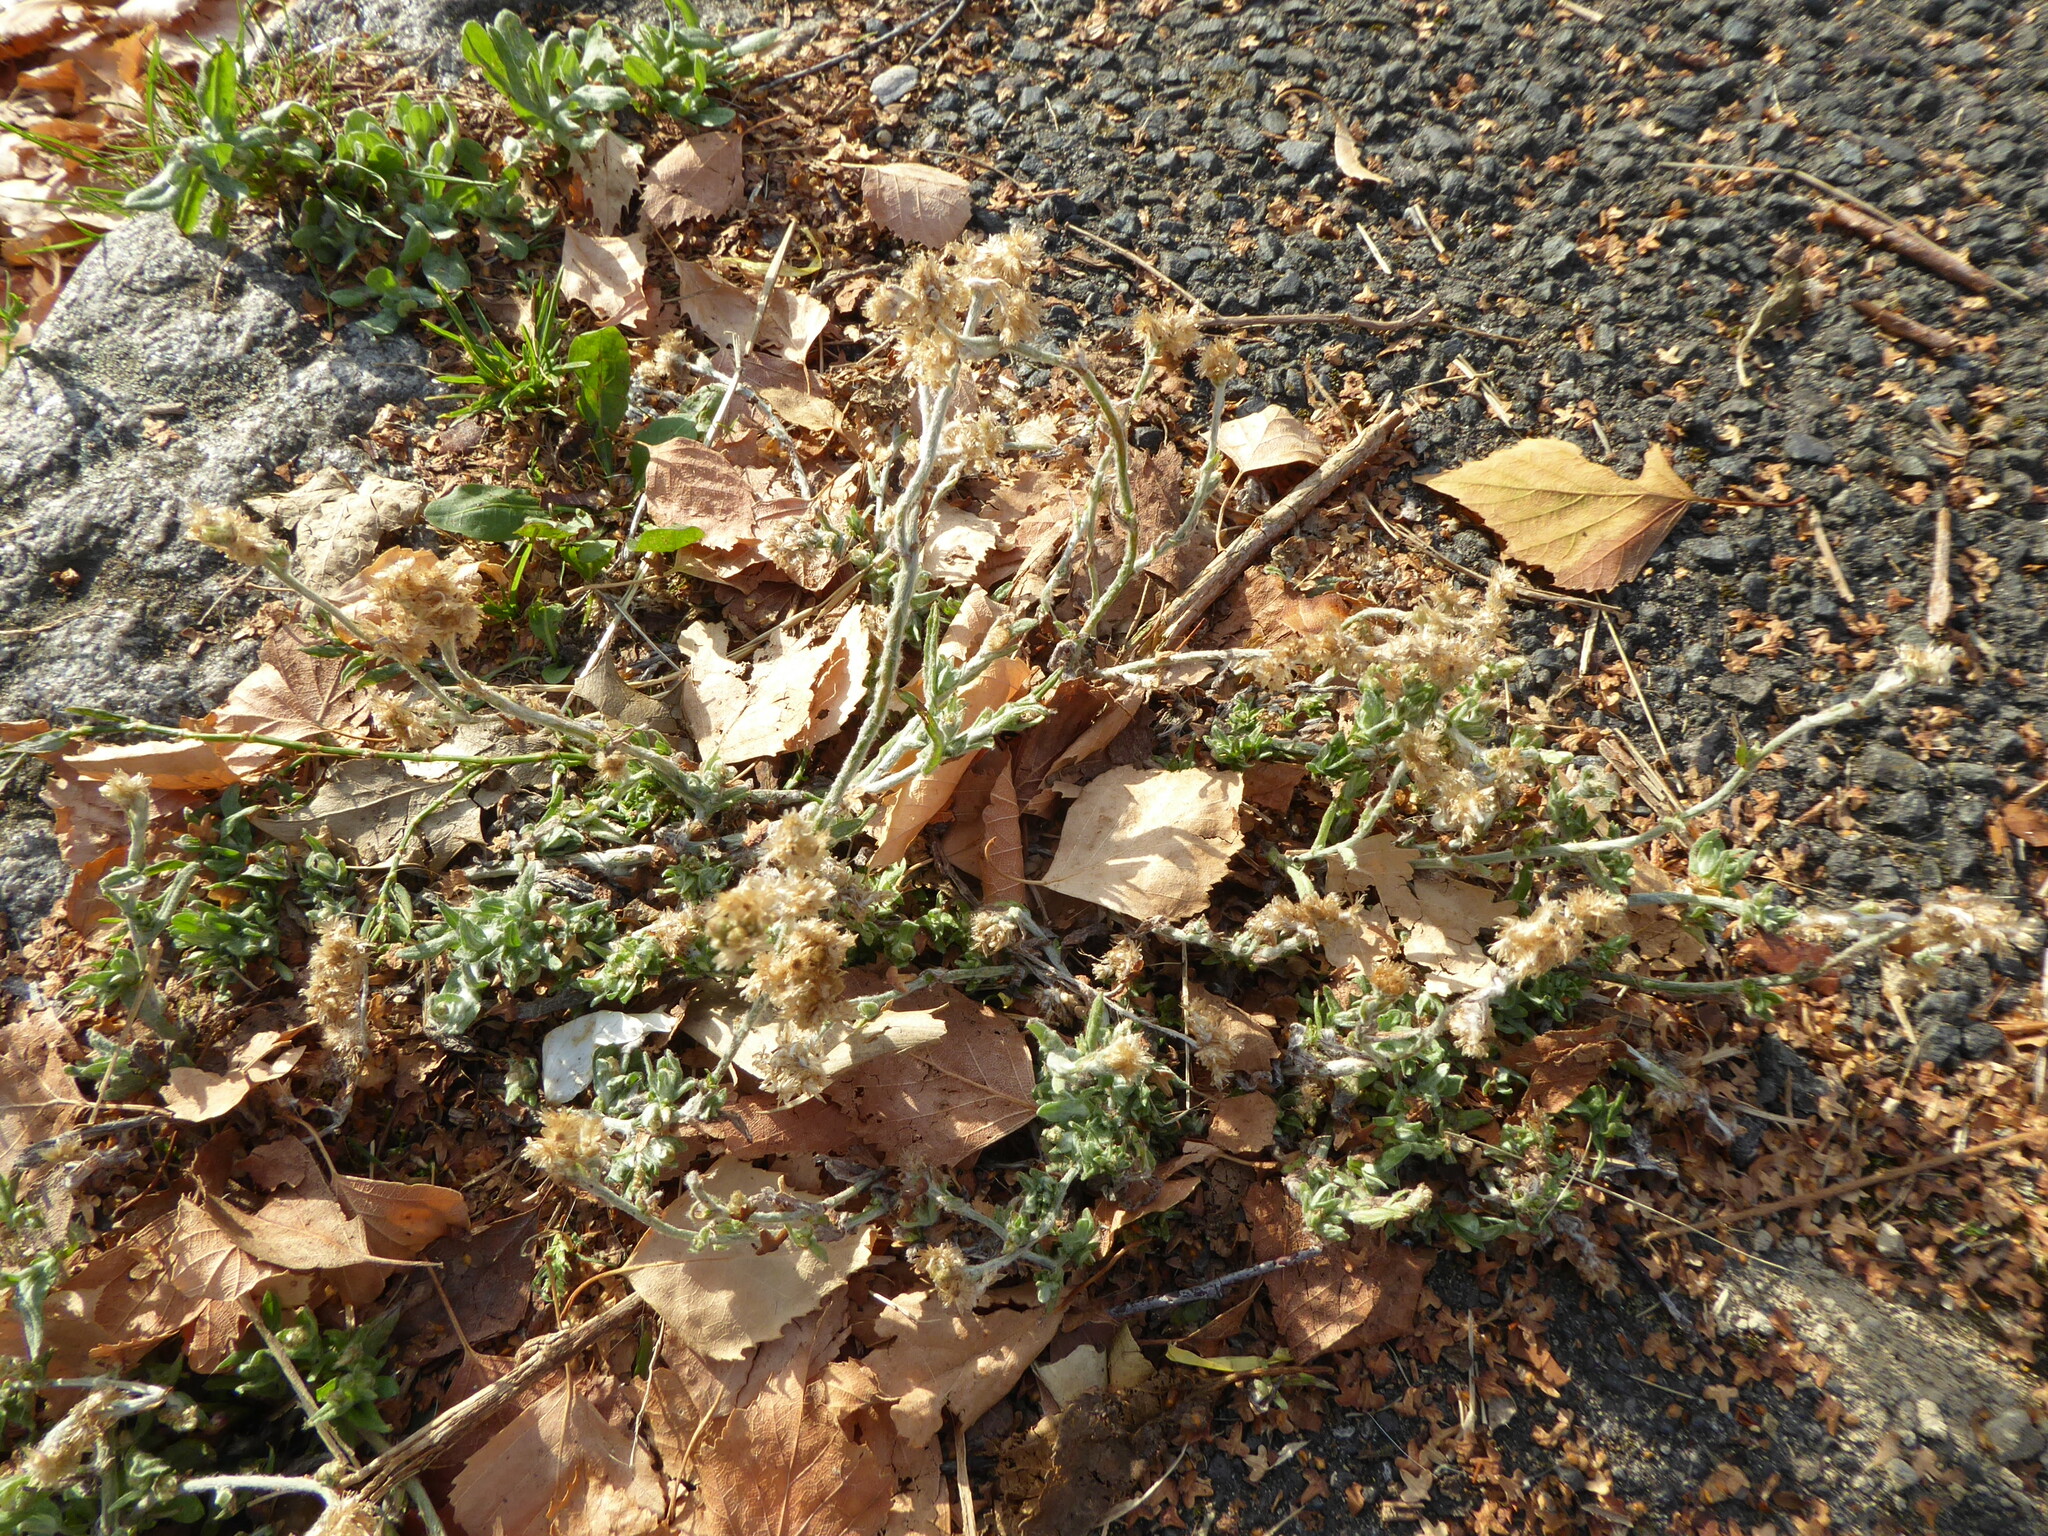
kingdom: Plantae
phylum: Tracheophyta
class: Magnoliopsida
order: Asterales
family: Asteraceae
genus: Helichrysum
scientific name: Helichrysum luteoalbum
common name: Daisy
